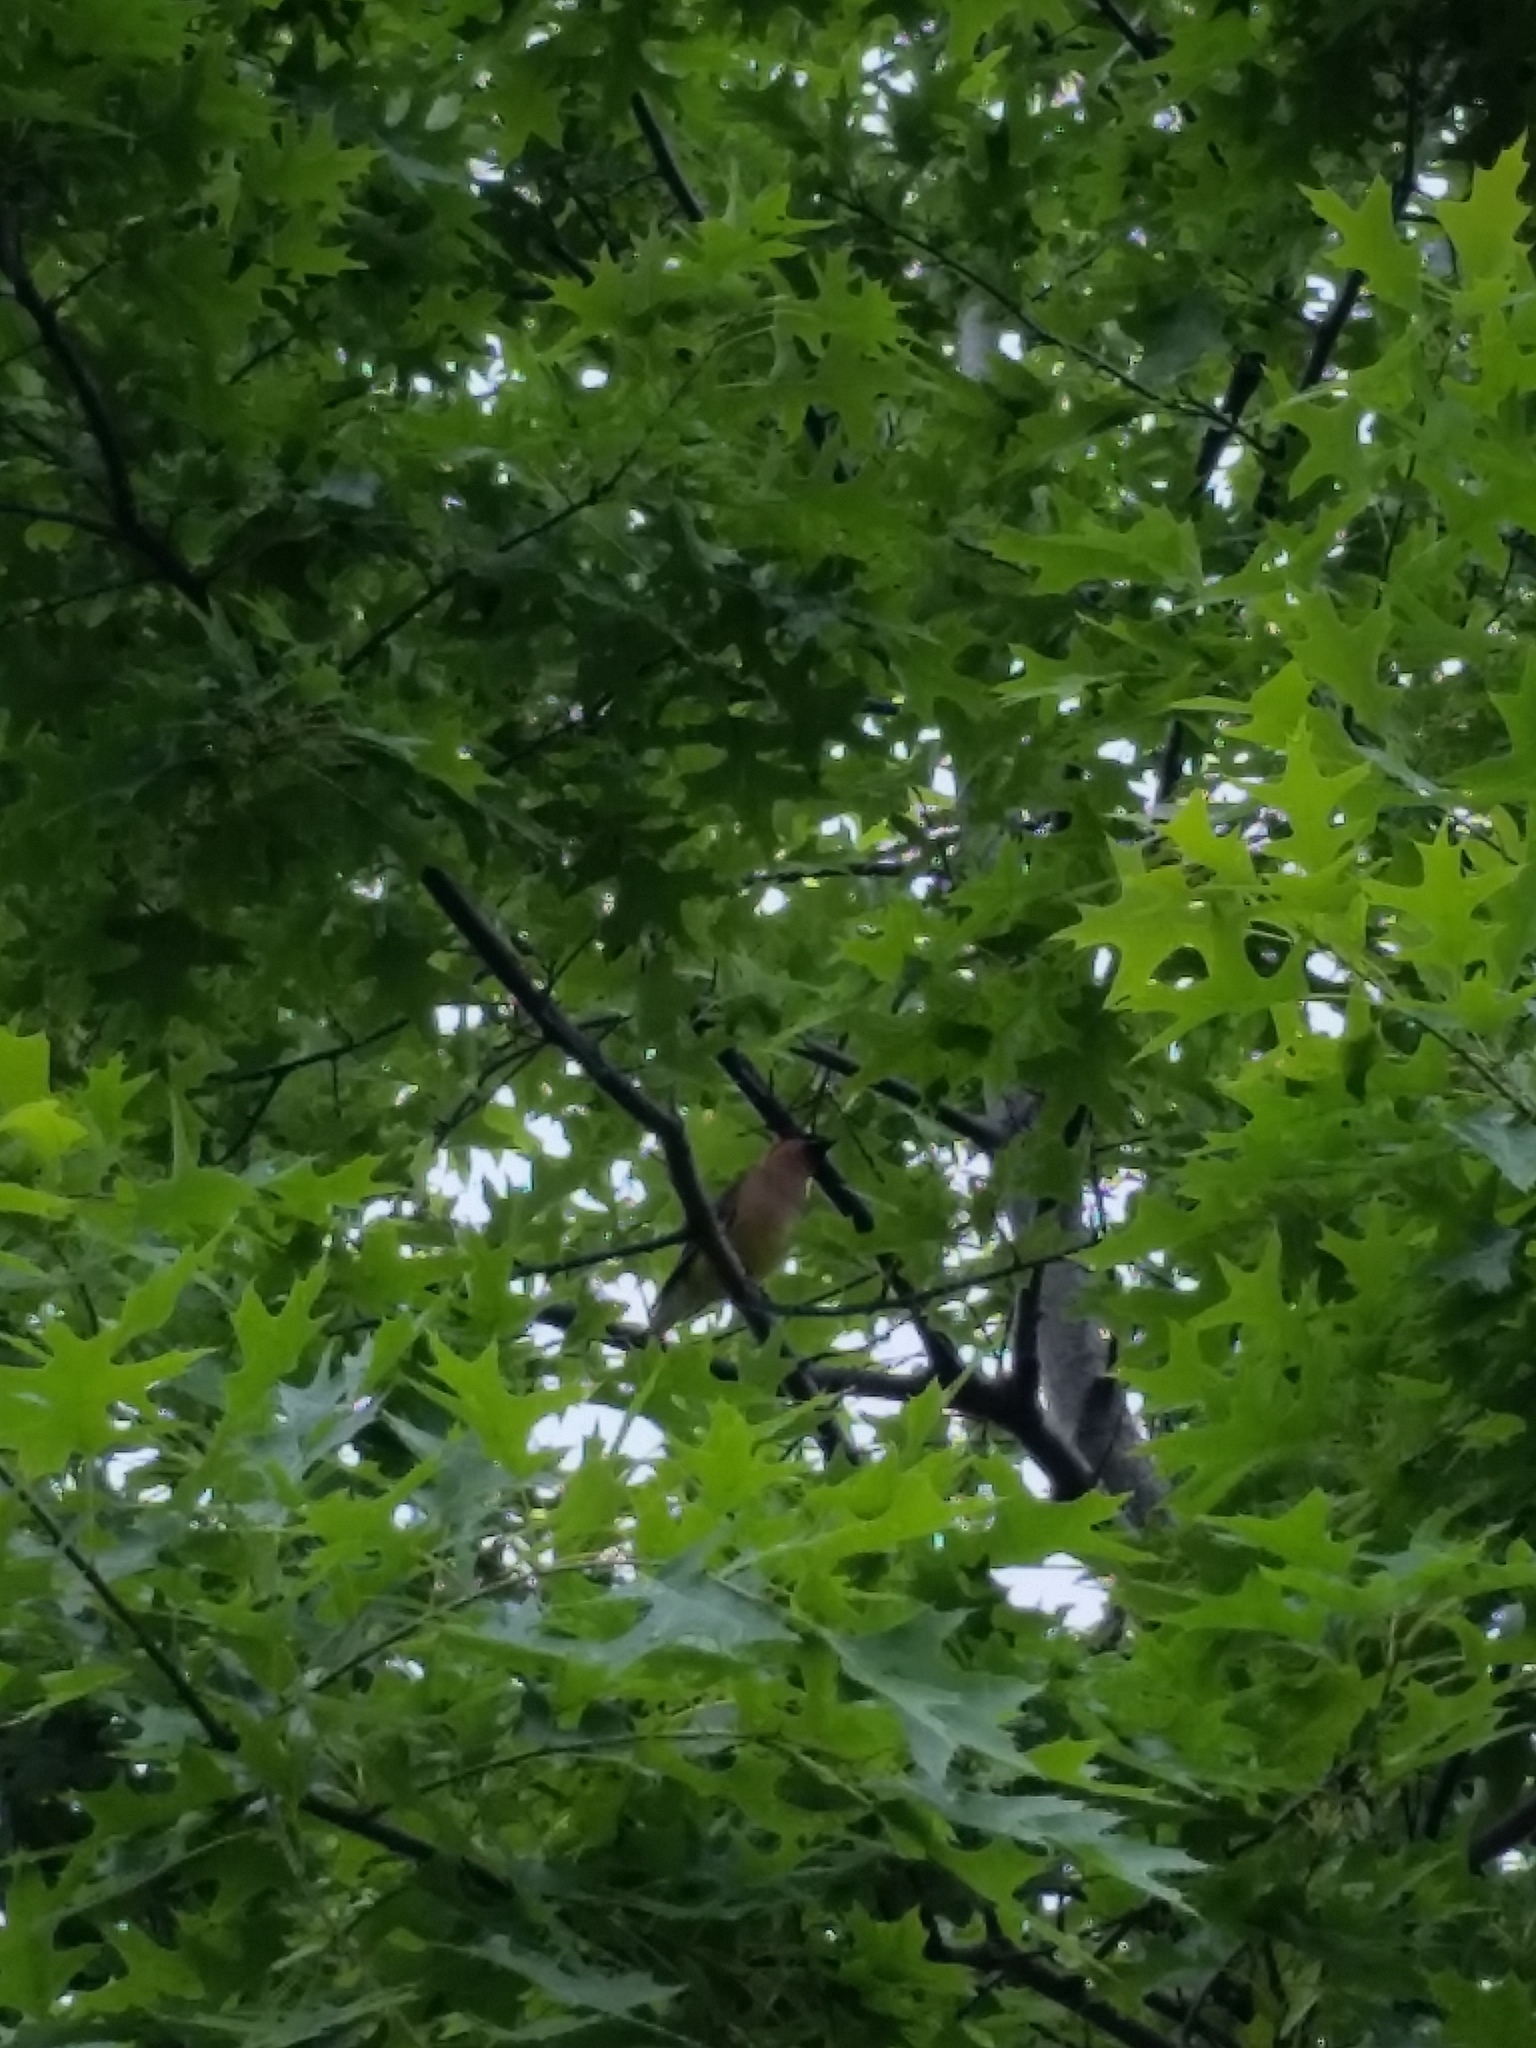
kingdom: Animalia
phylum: Chordata
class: Aves
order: Passeriformes
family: Bombycillidae
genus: Bombycilla
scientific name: Bombycilla cedrorum
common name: Cedar waxwing
